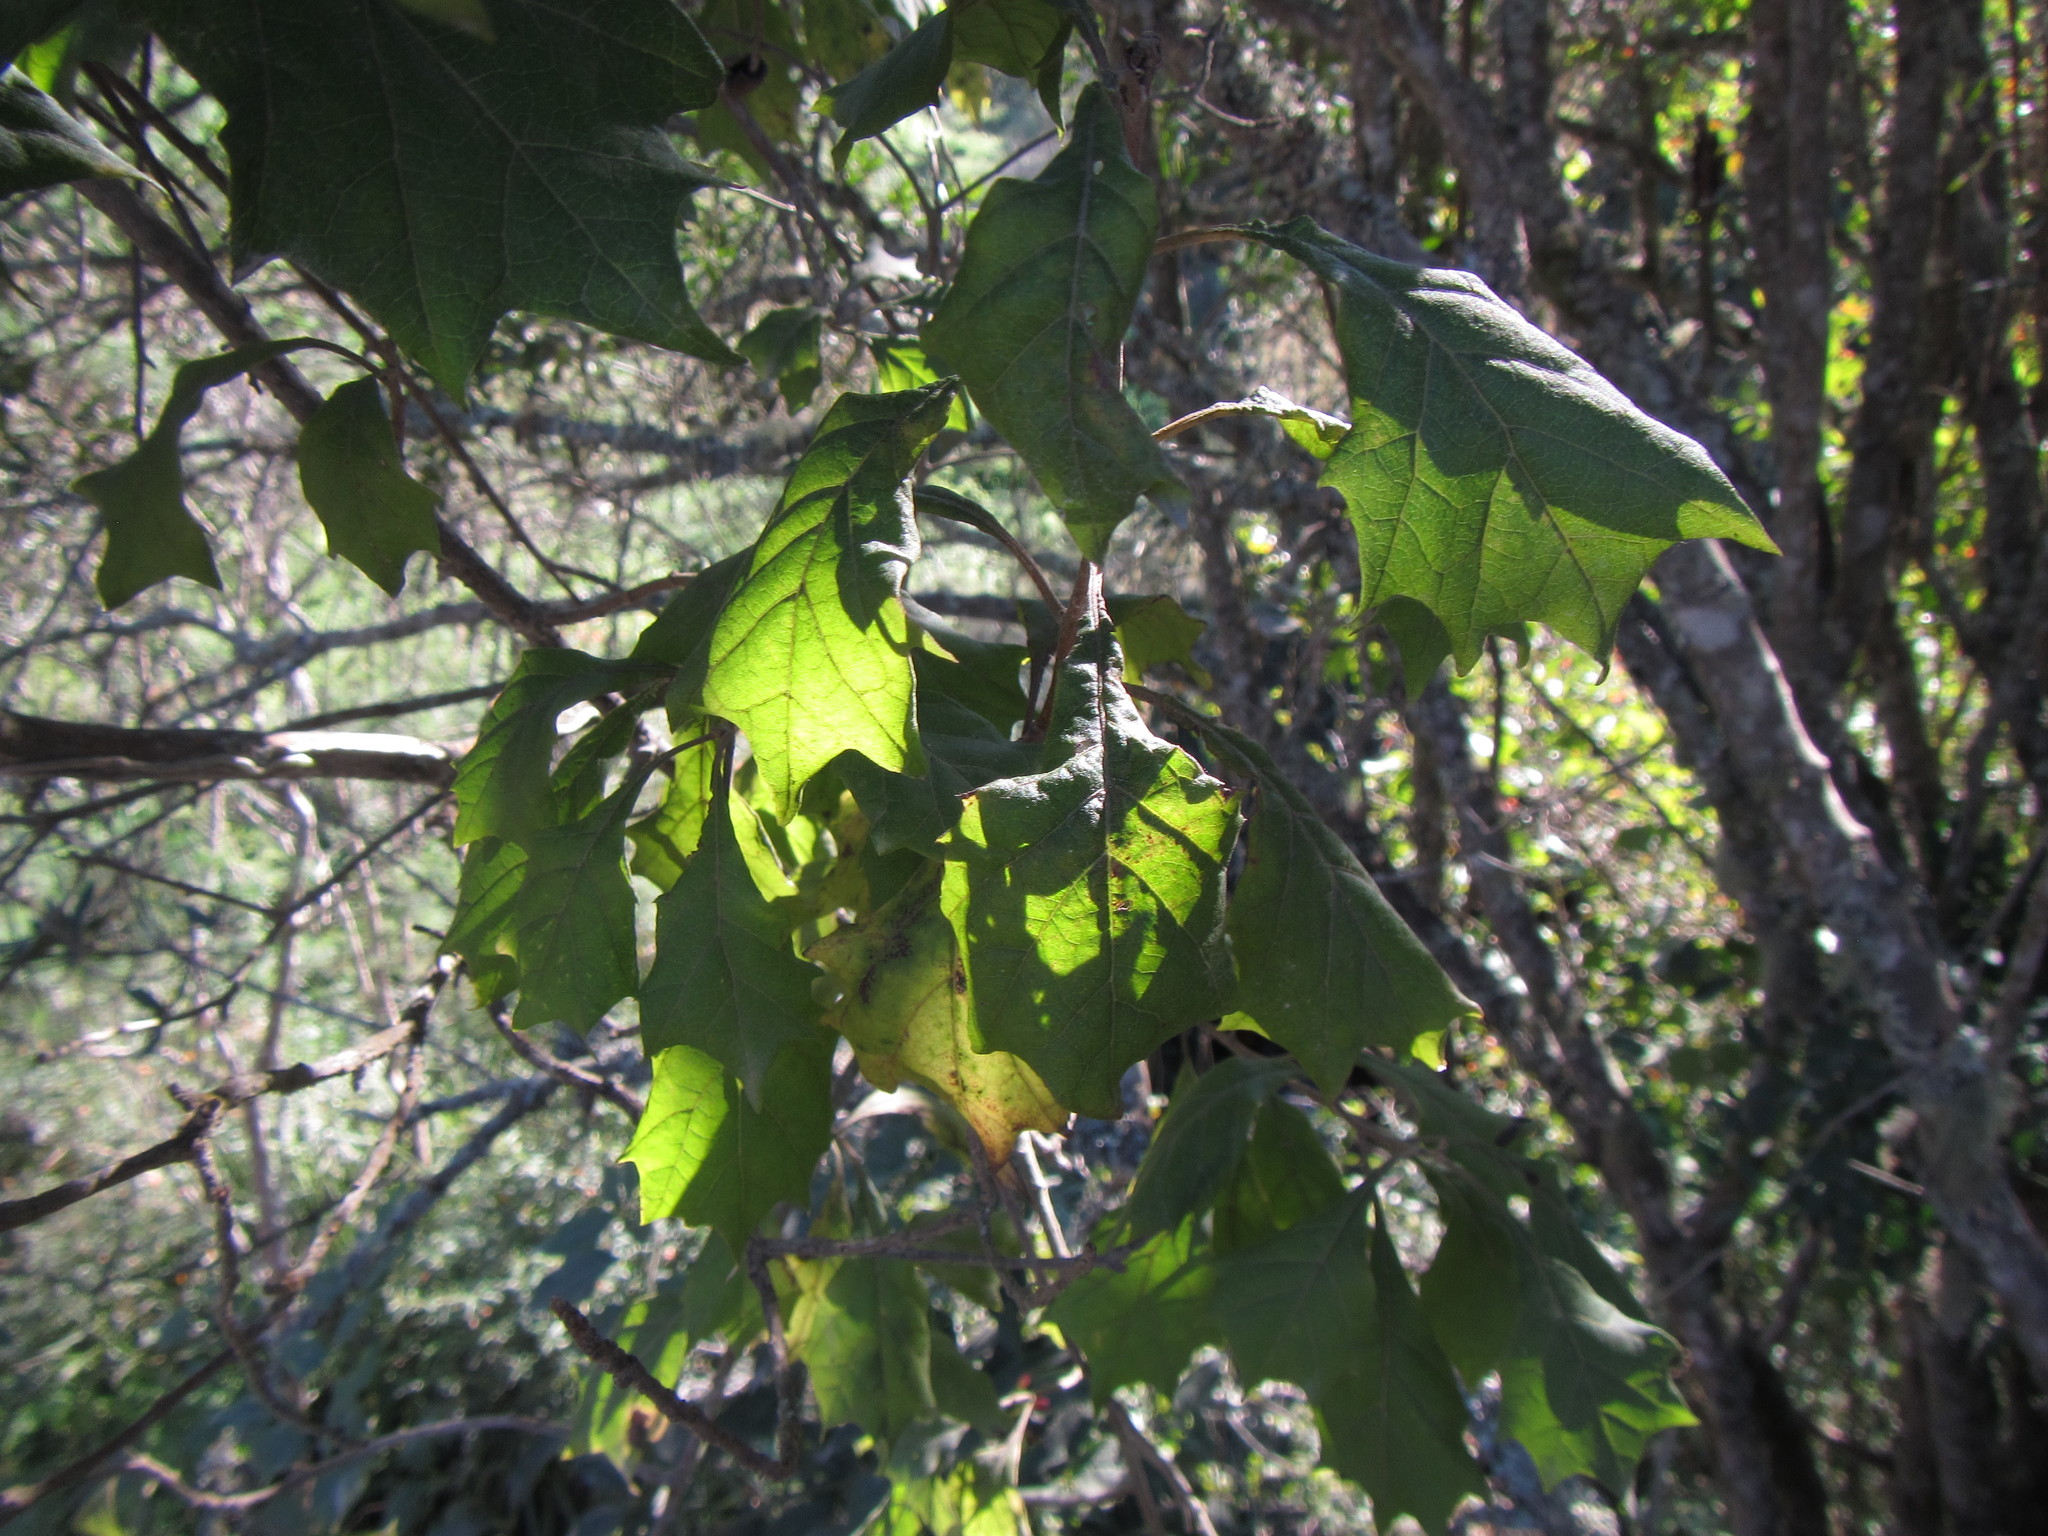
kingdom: Plantae
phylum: Tracheophyta
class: Magnoliopsida
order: Asterales
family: Asteraceae
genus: Gymnanthemum
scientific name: Gymnanthemum capense
